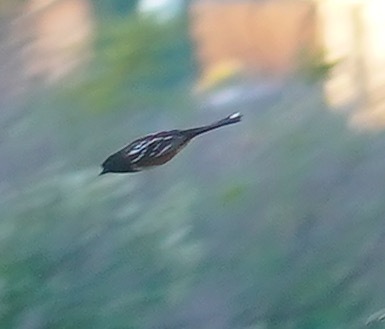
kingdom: Animalia
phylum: Chordata
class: Aves
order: Passeriformes
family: Passerellidae
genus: Pipilo
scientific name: Pipilo maculatus
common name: Spotted towhee
